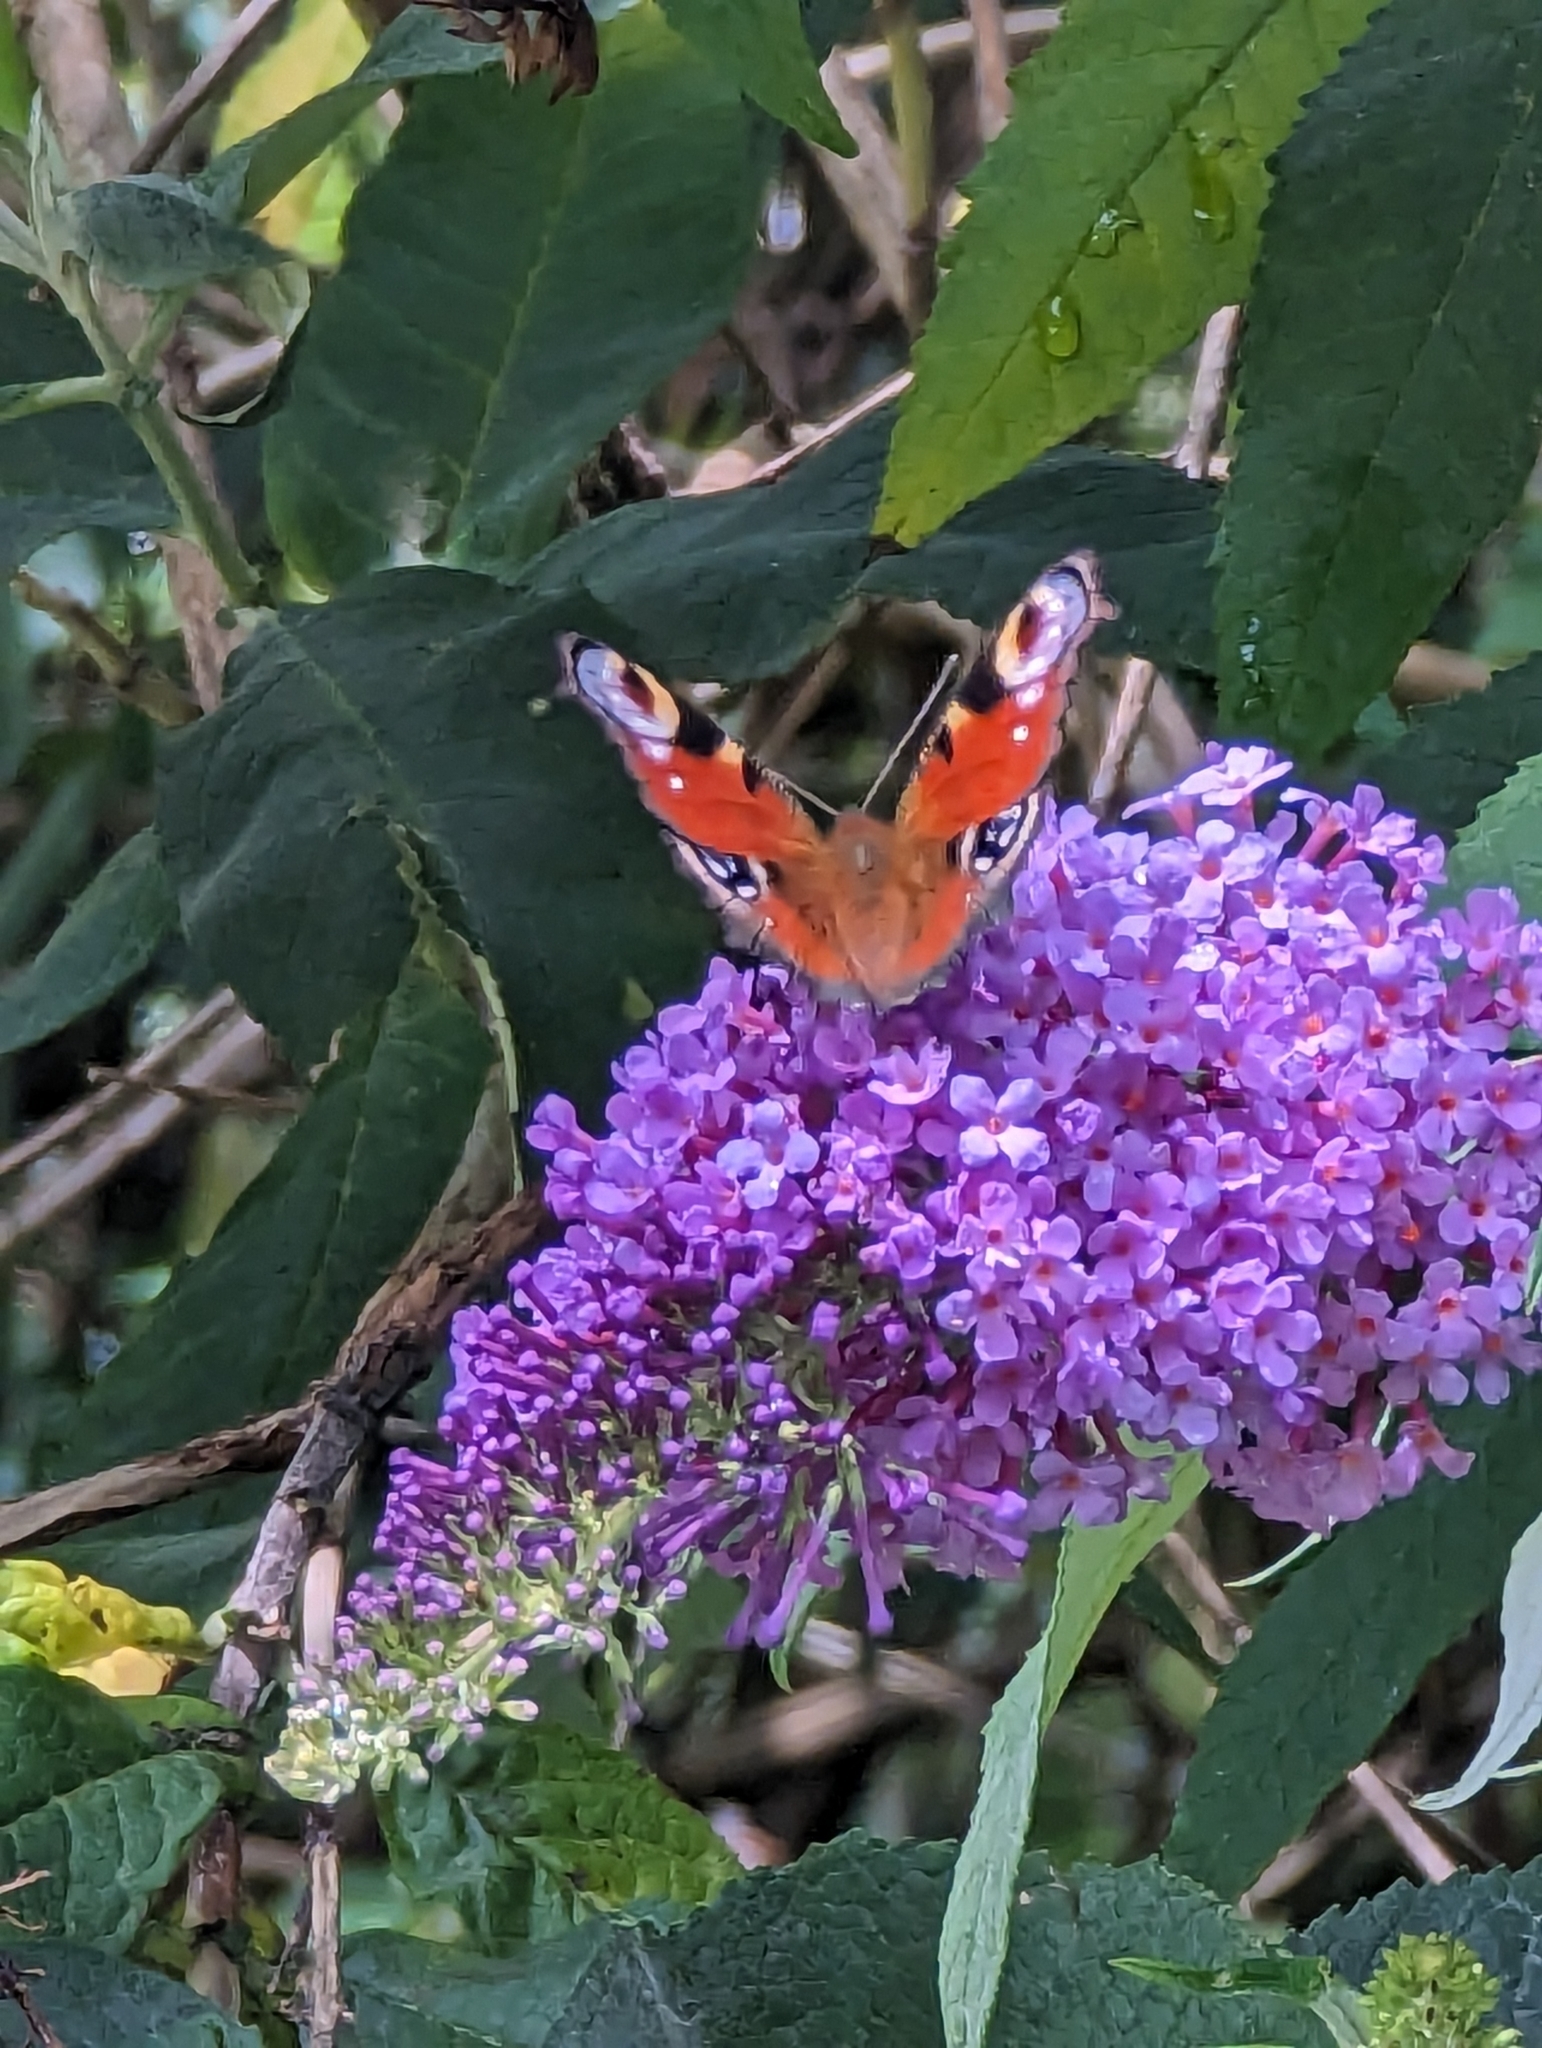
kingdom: Animalia
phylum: Arthropoda
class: Insecta
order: Lepidoptera
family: Nymphalidae
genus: Aglais
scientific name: Aglais io
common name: Peacock
